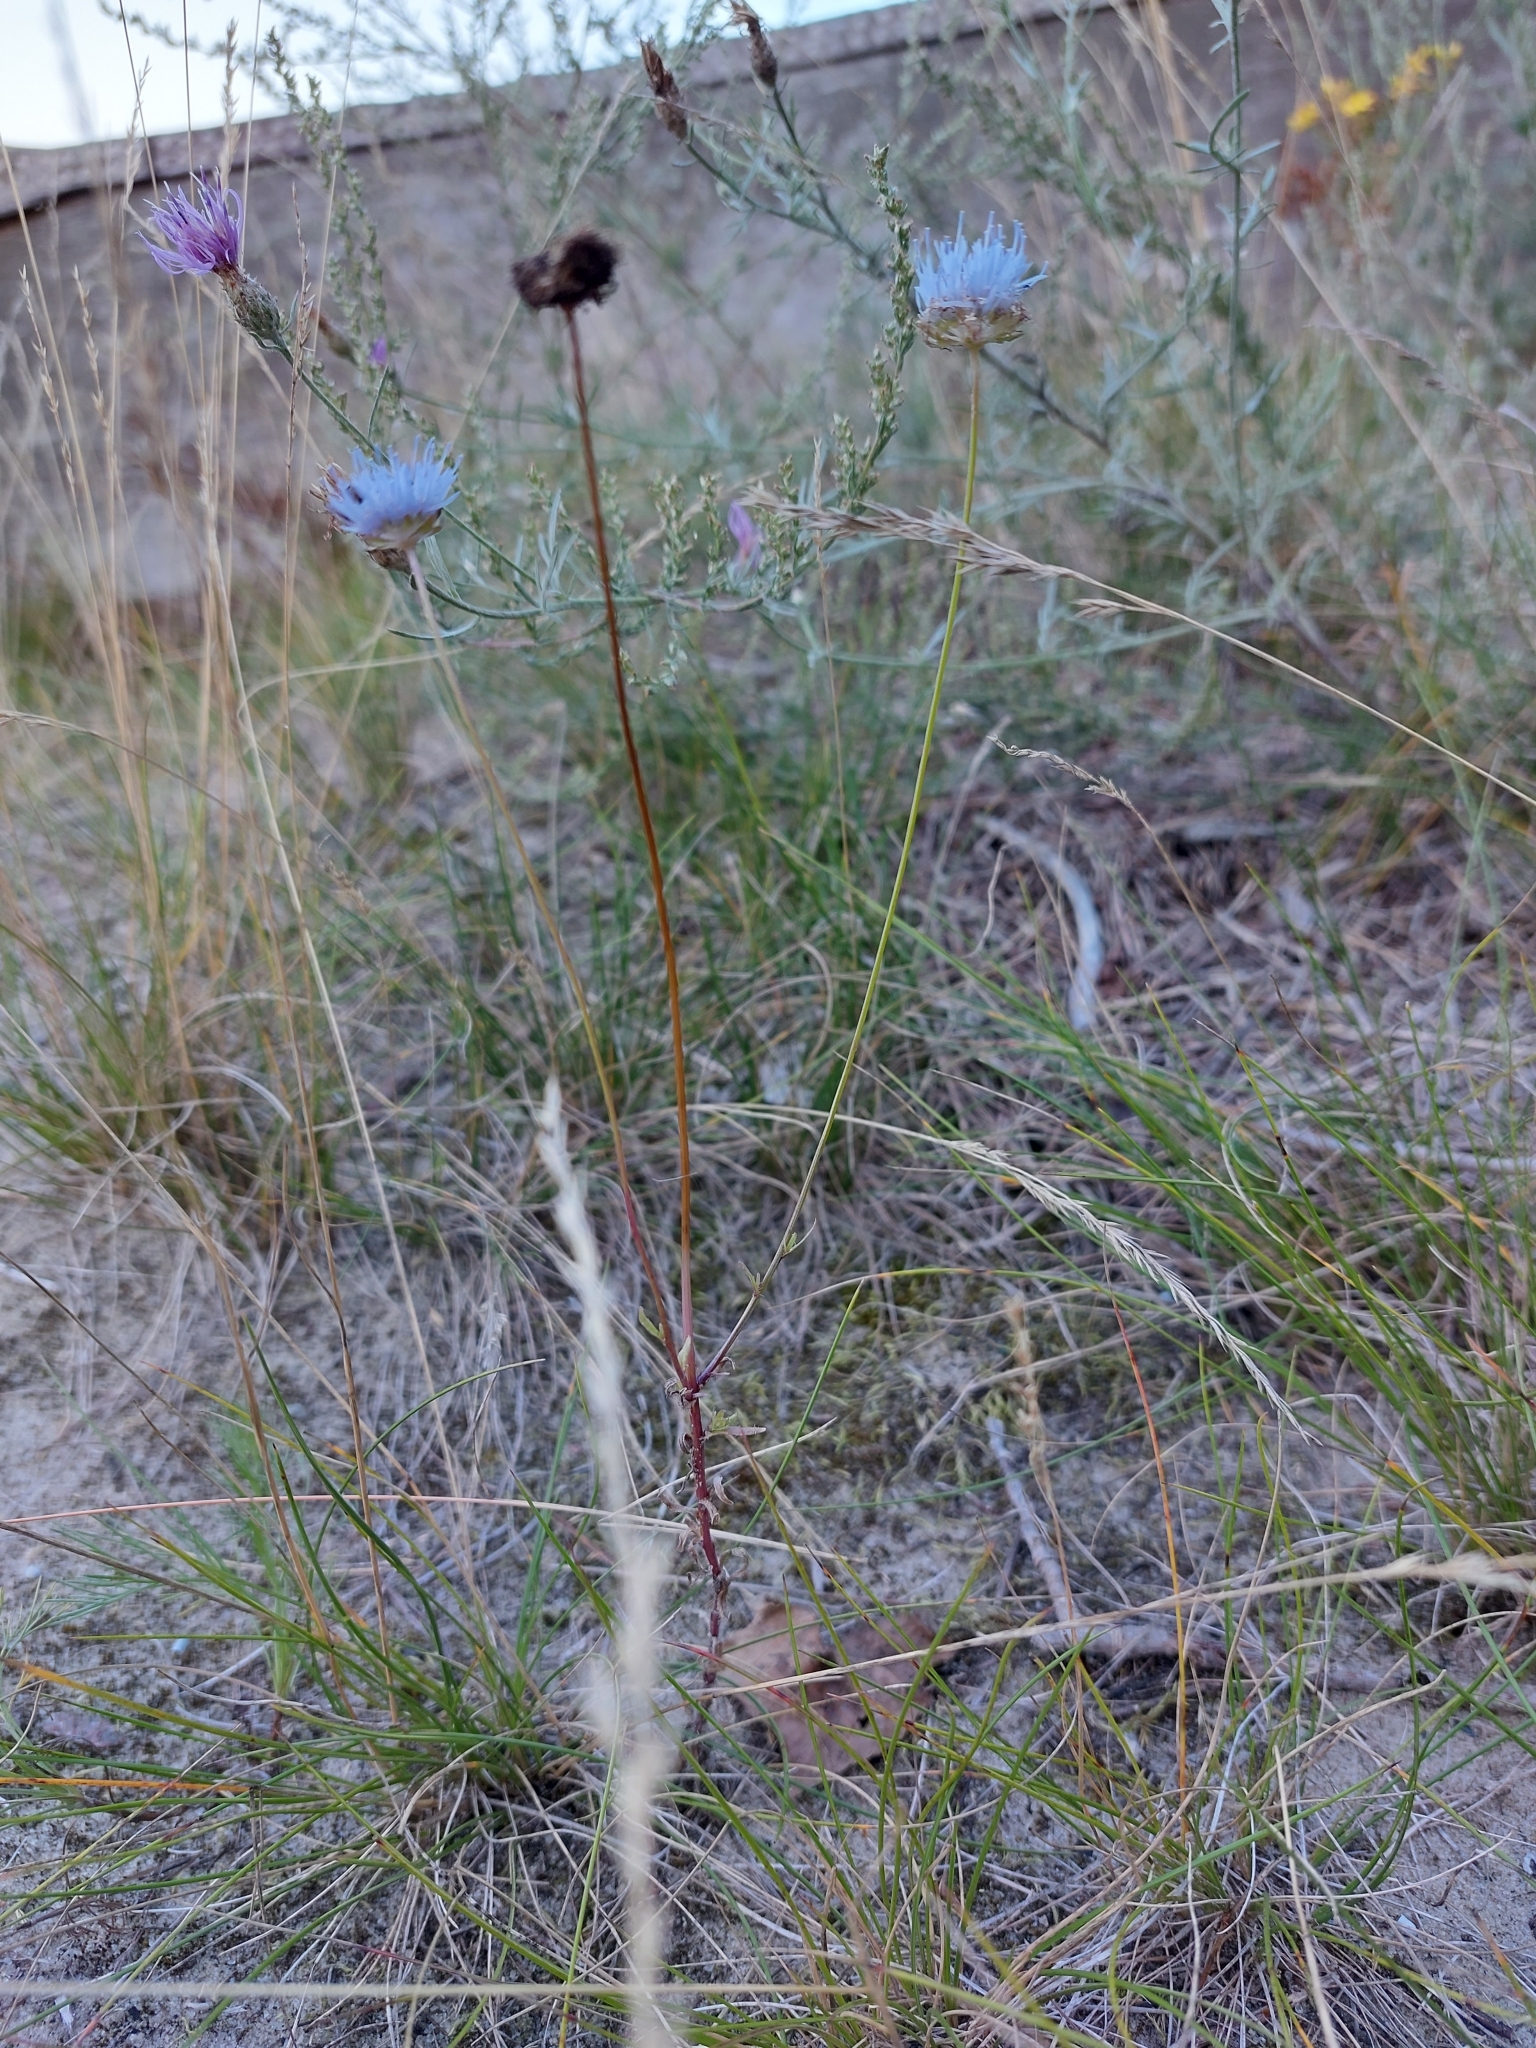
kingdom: Plantae
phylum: Tracheophyta
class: Magnoliopsida
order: Asterales
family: Campanulaceae
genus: Jasione
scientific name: Jasione montana
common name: Sheep's-bit
